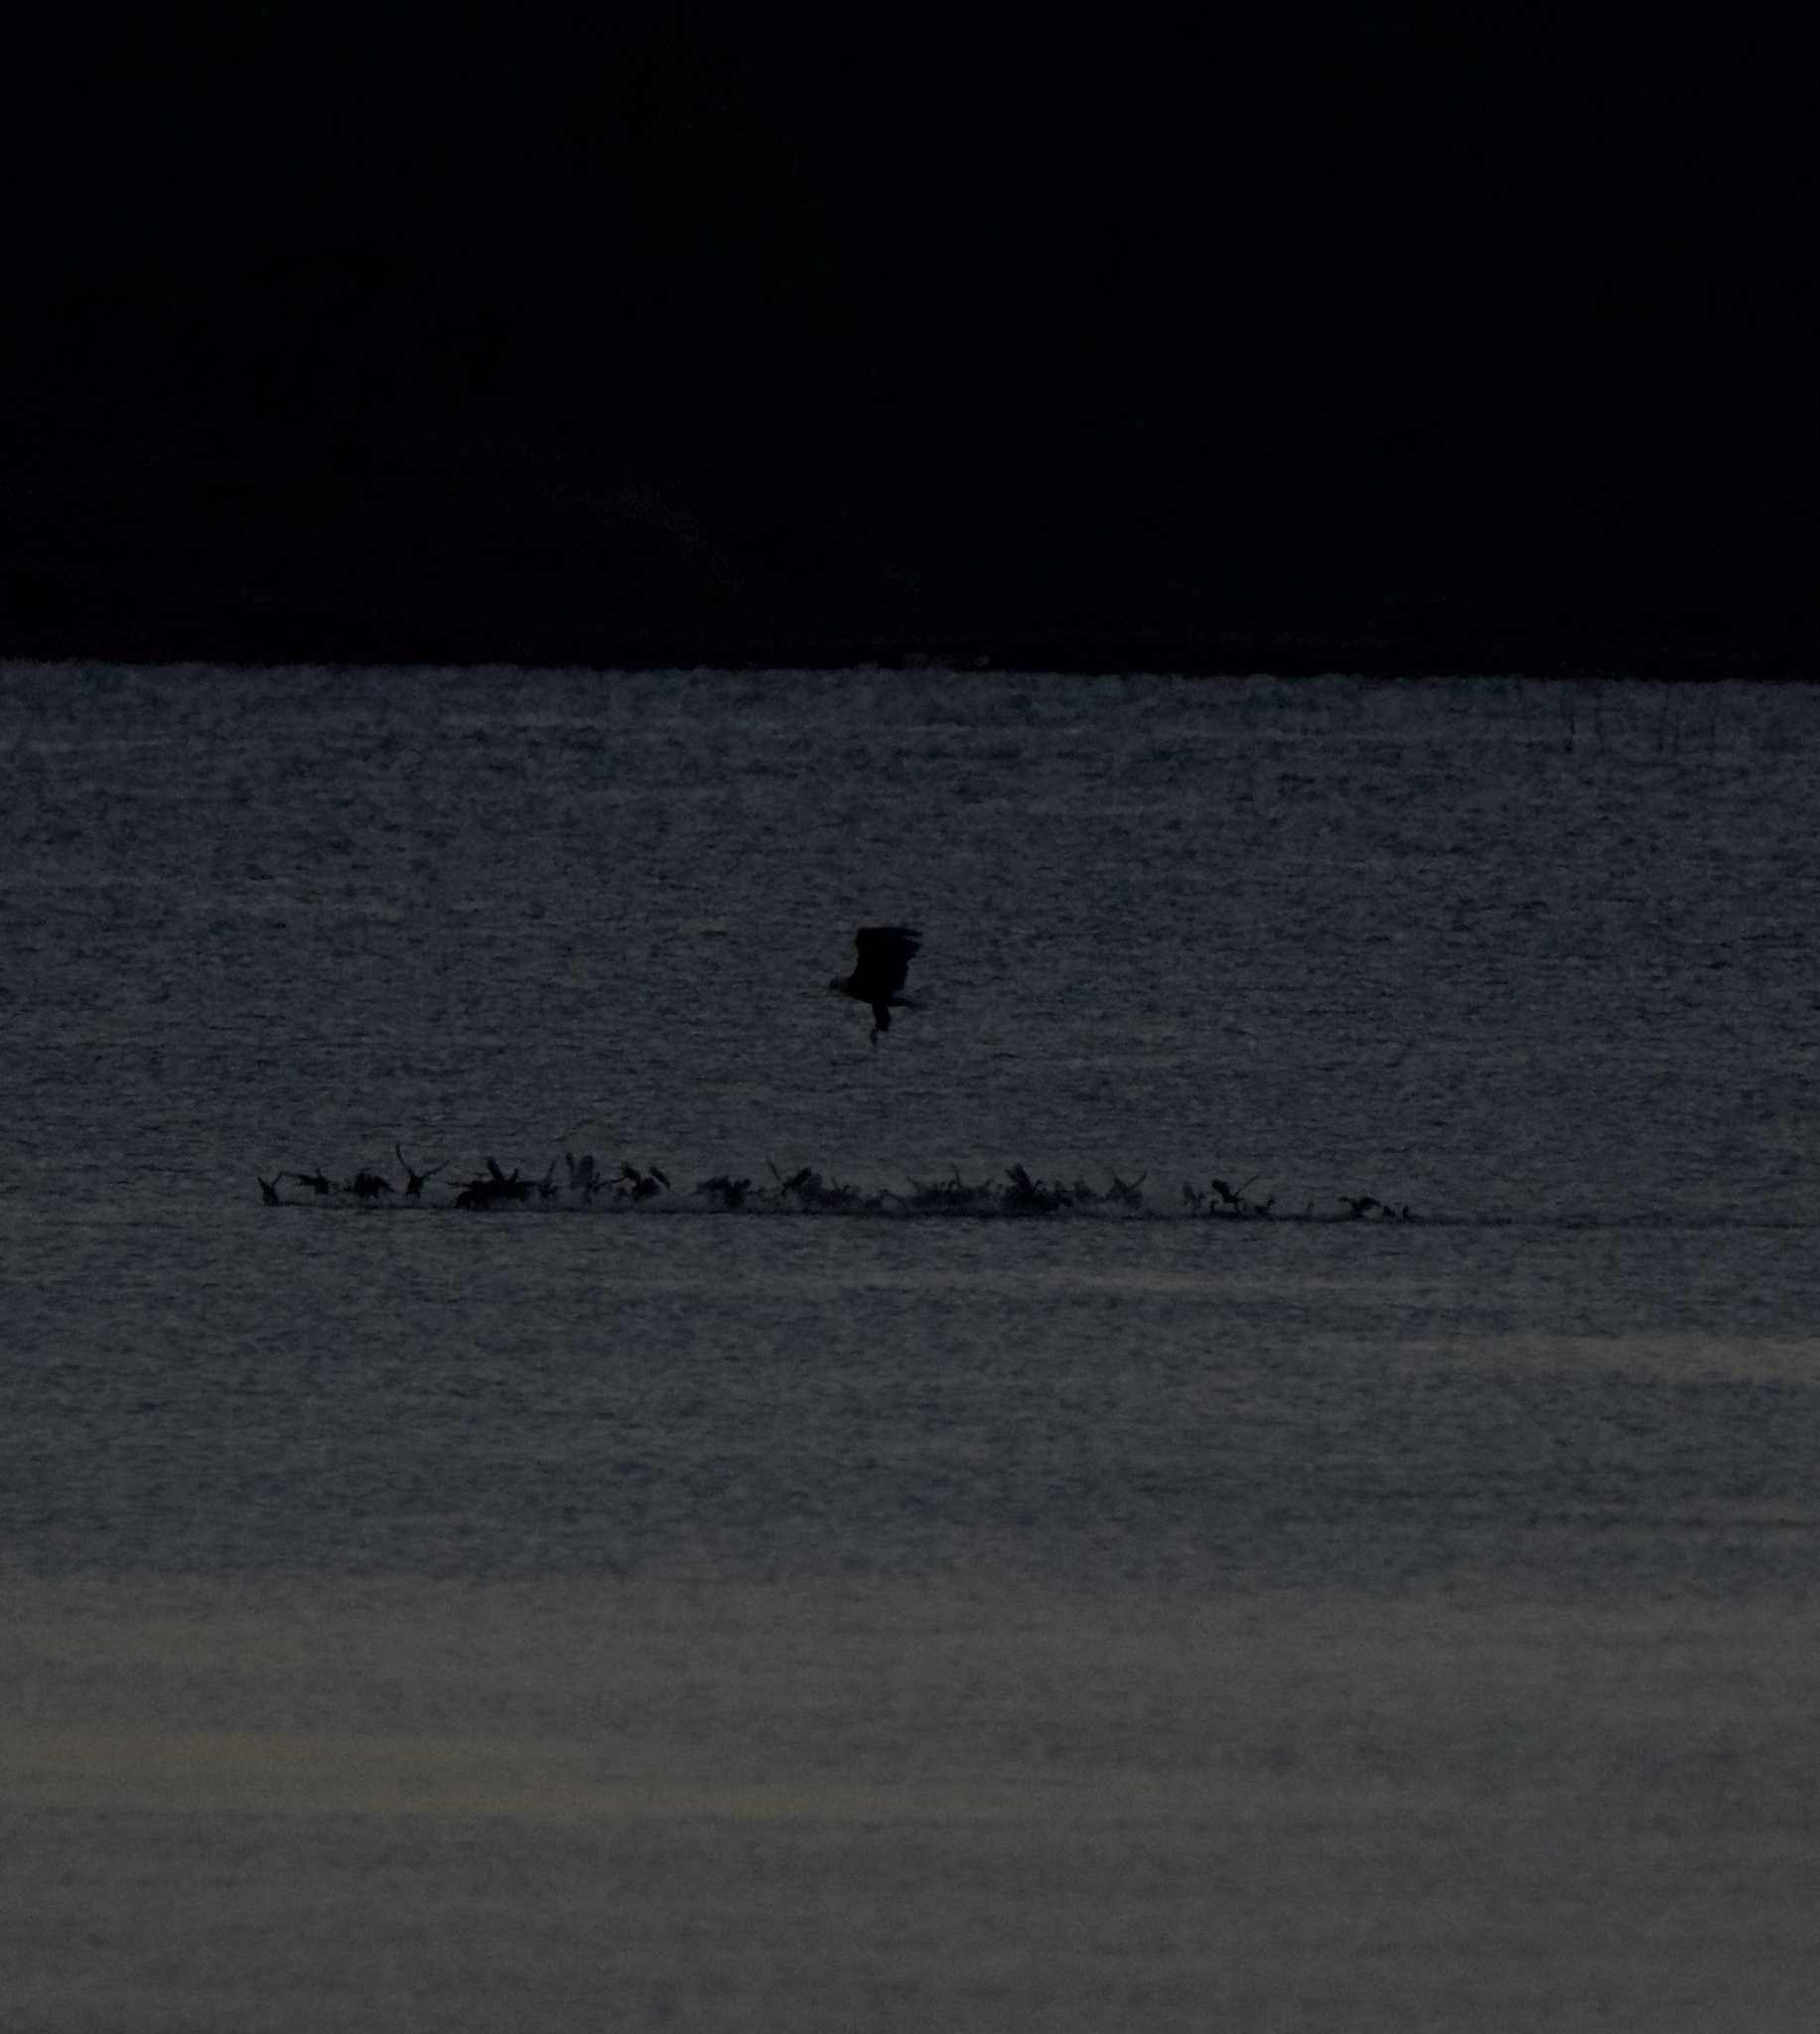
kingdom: Animalia
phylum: Chordata
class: Aves
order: Accipitriformes
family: Accipitridae
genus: Haliaeetus
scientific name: Haliaeetus leucocephalus
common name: Bald eagle
